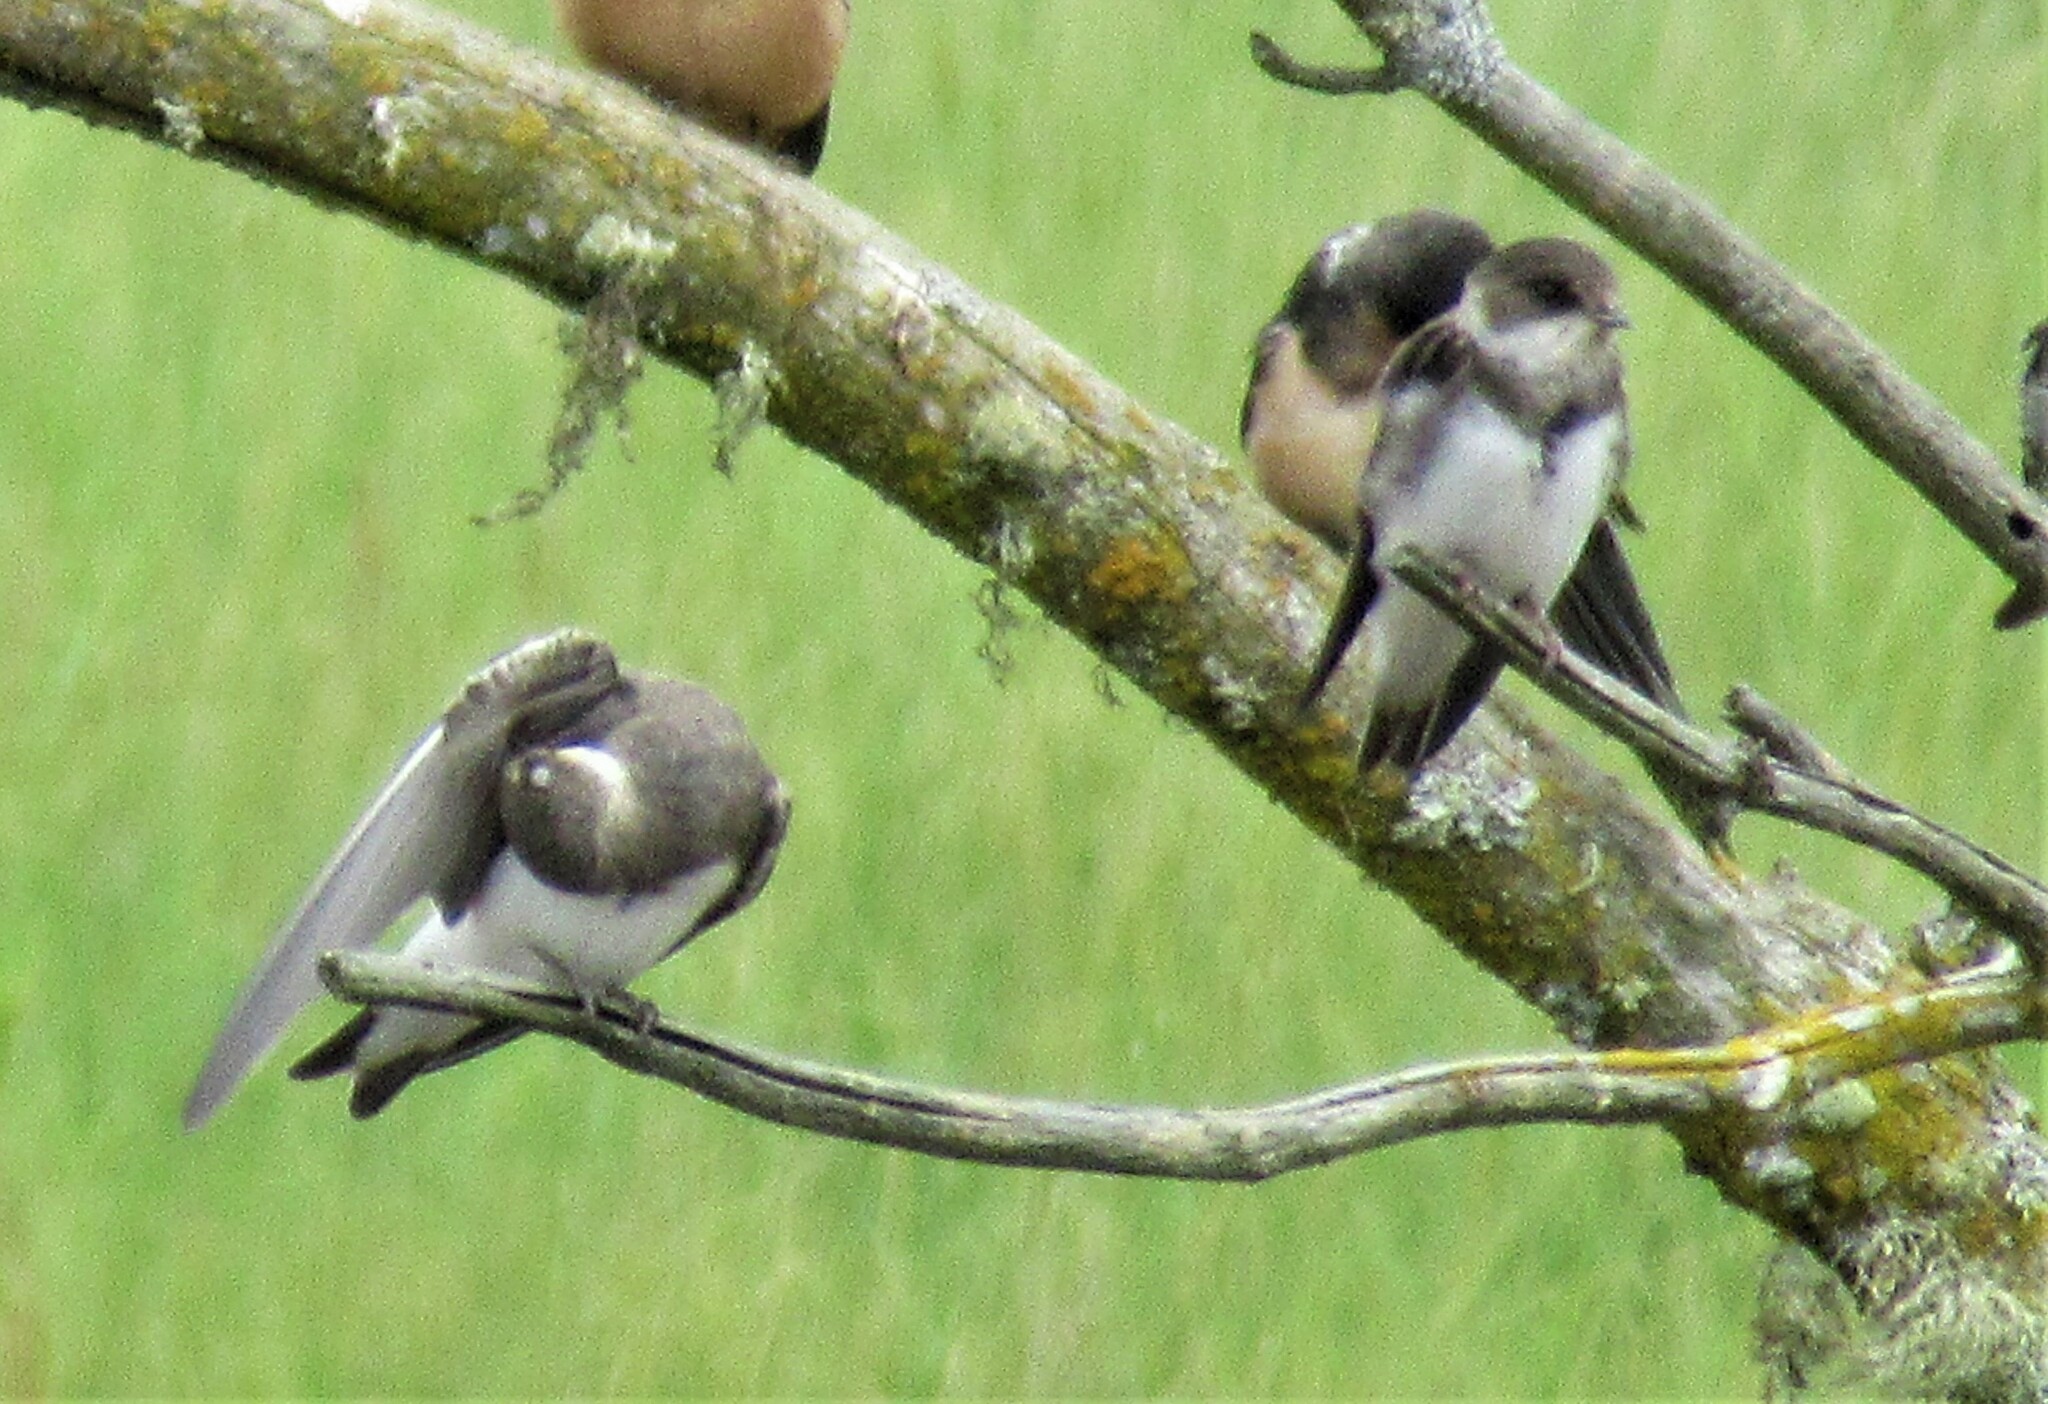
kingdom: Animalia
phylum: Chordata
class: Aves
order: Passeriformes
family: Hirundinidae
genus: Riparia
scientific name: Riparia riparia
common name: Sand martin
